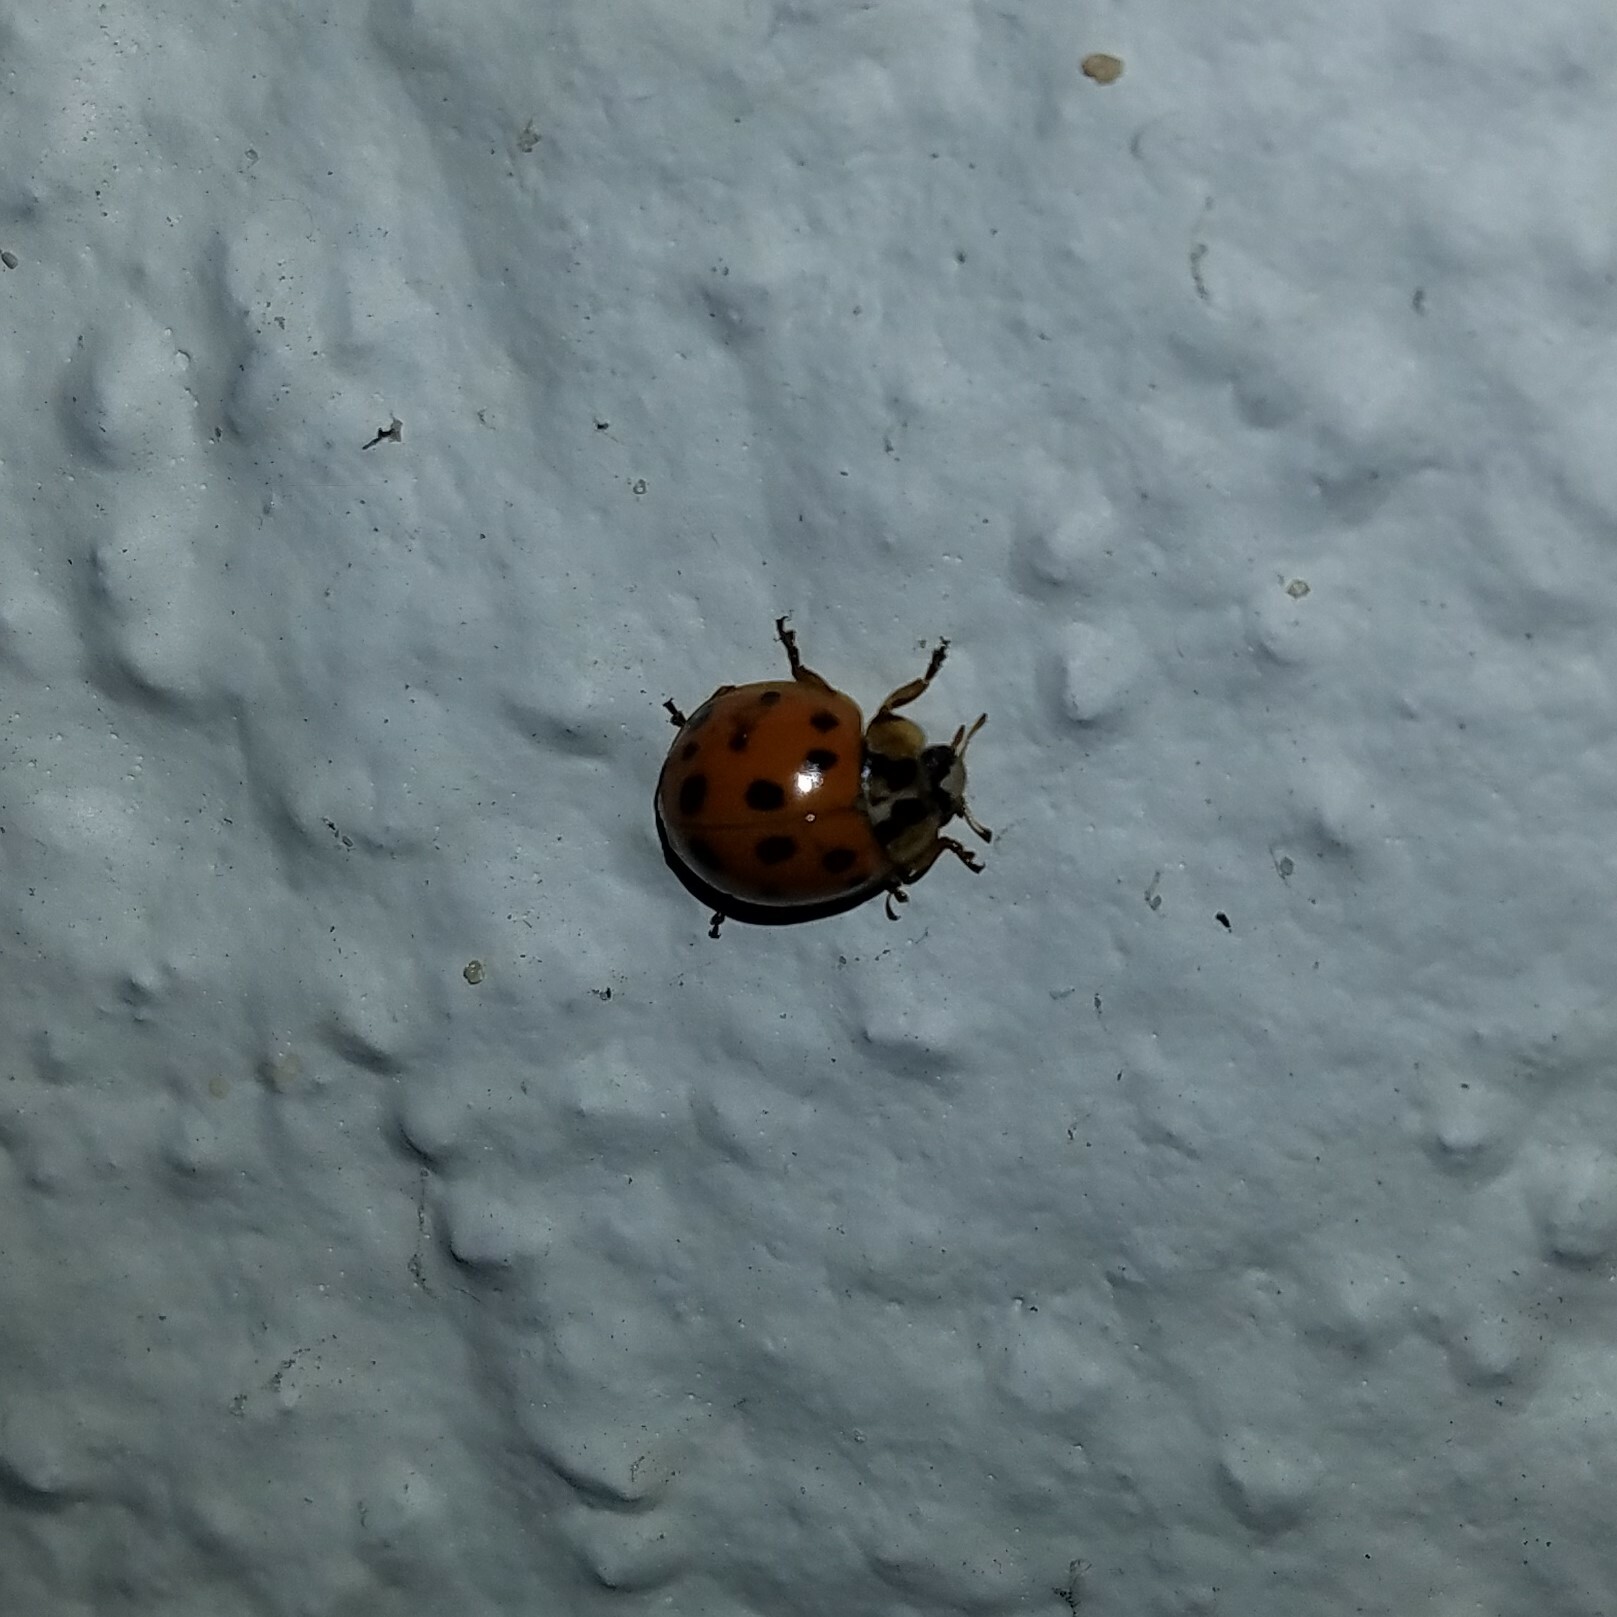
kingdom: Animalia
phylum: Arthropoda
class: Insecta
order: Coleoptera
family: Coccinellidae
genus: Harmonia
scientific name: Harmonia axyridis
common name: Harlequin ladybird
